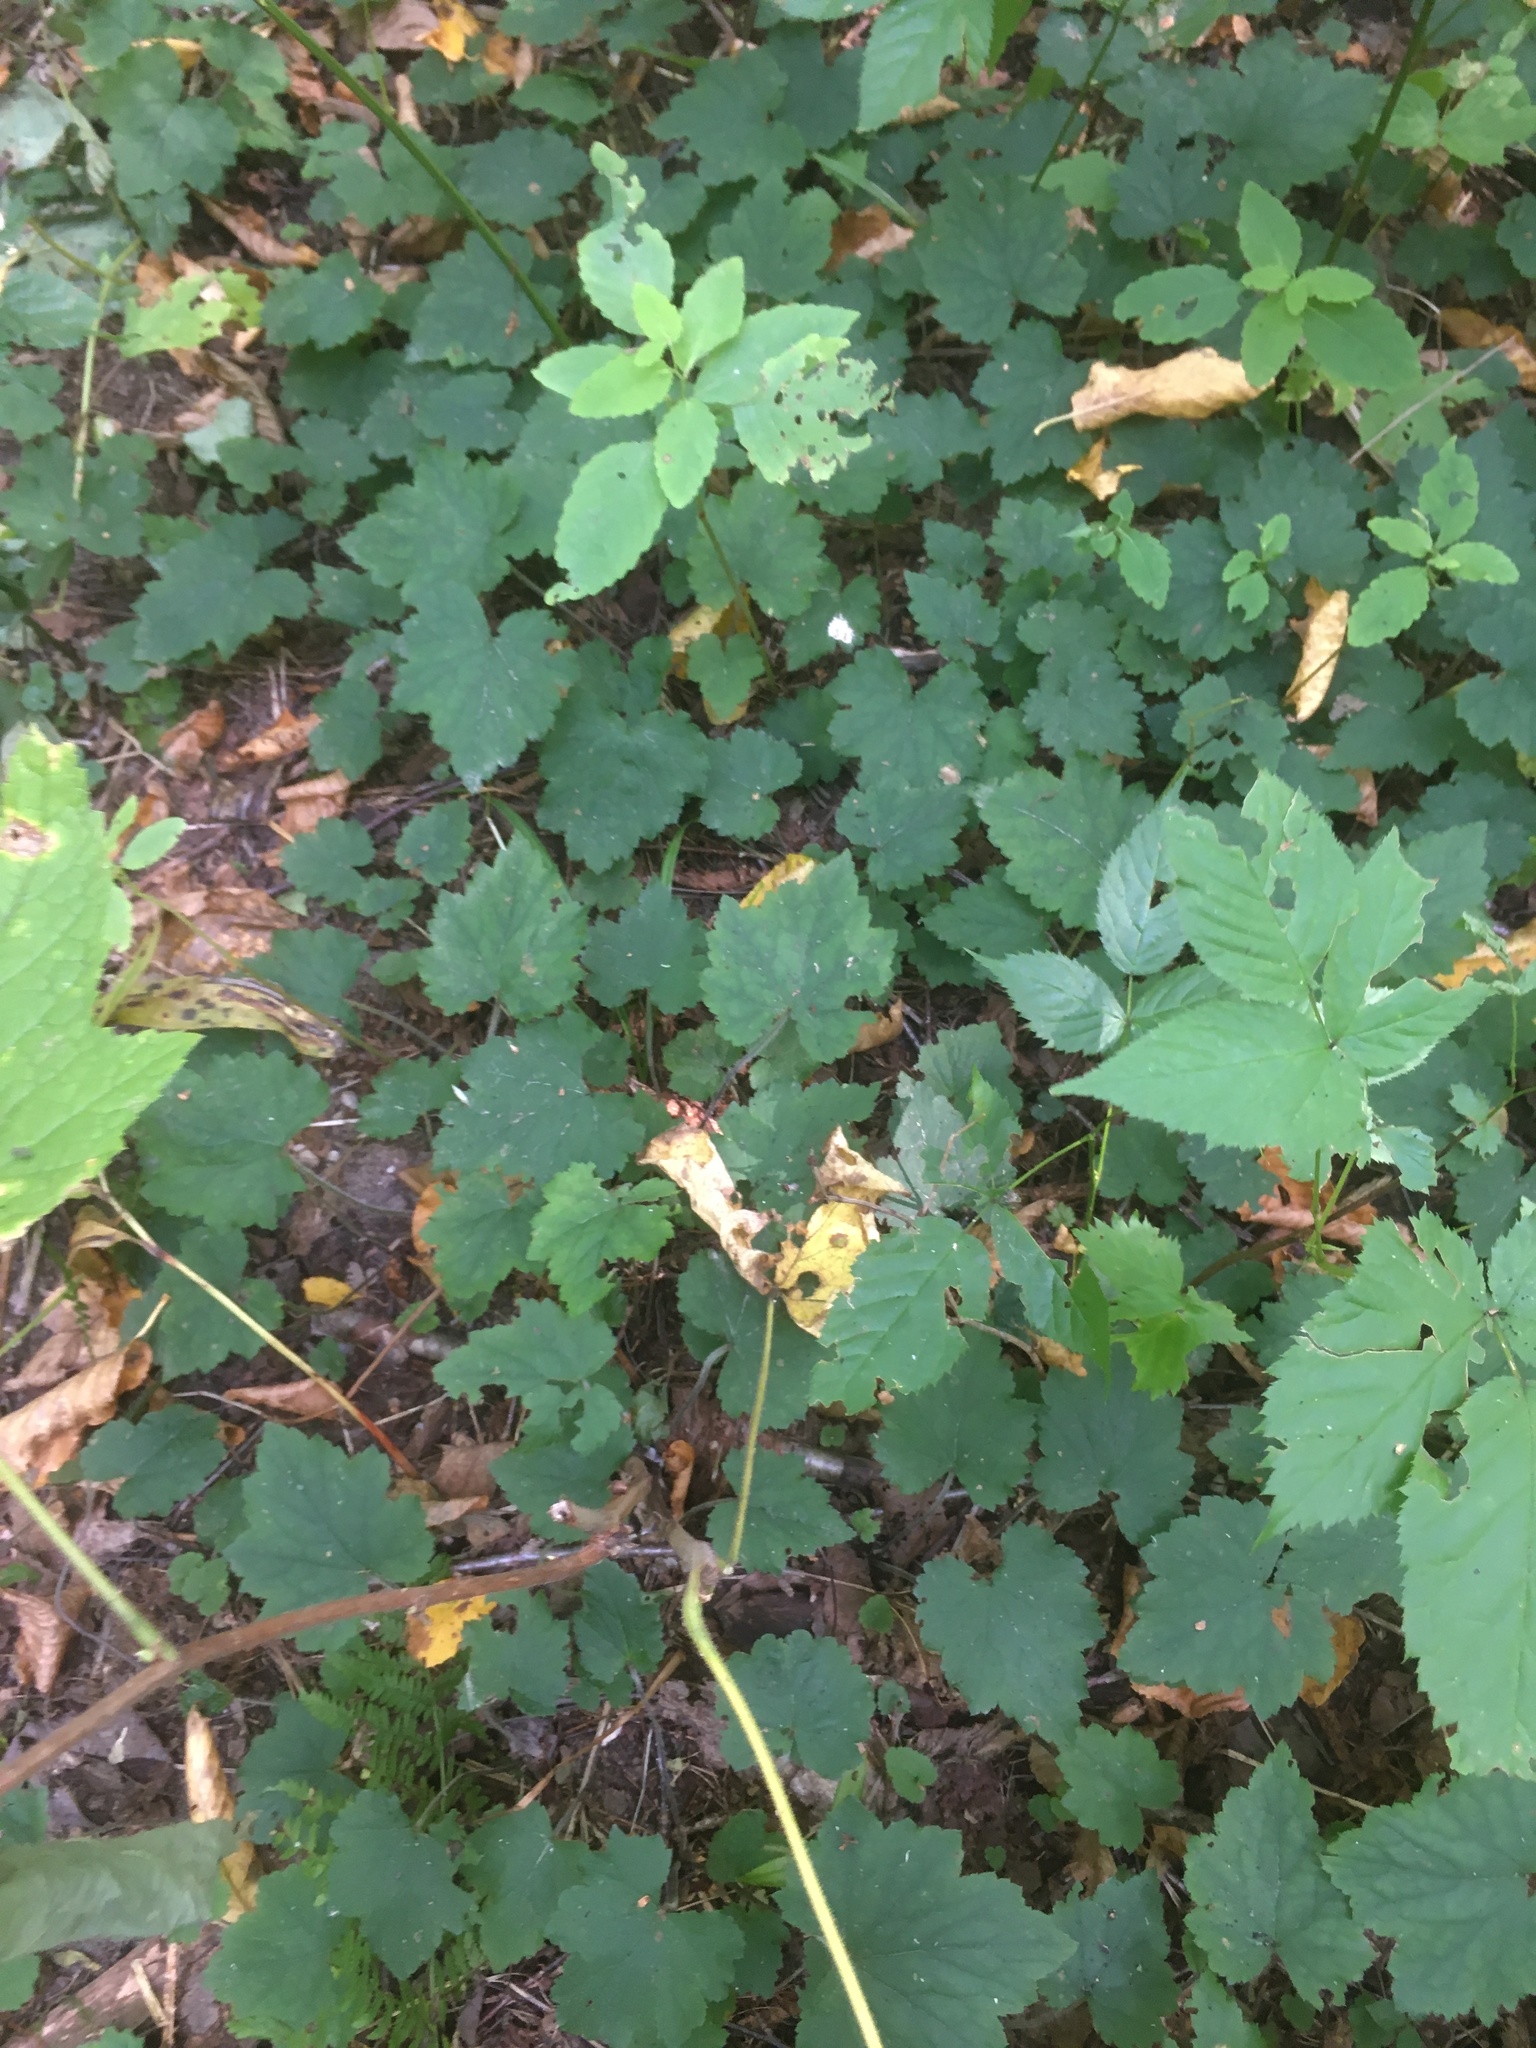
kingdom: Plantae
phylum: Tracheophyta
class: Magnoliopsida
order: Saxifragales
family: Saxifragaceae
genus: Tiarella
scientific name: Tiarella stolonifera
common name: Stoloniferous foamflower
